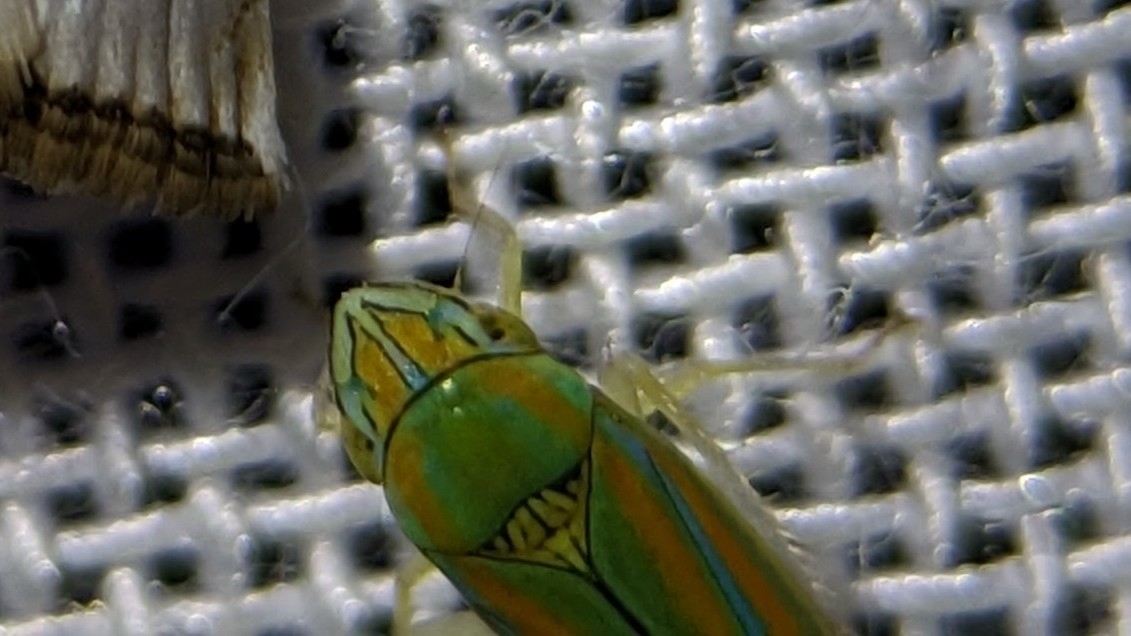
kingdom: Animalia
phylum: Arthropoda
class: Insecta
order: Hemiptera
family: Cicadellidae
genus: Graphocephala
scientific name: Graphocephala versuta
